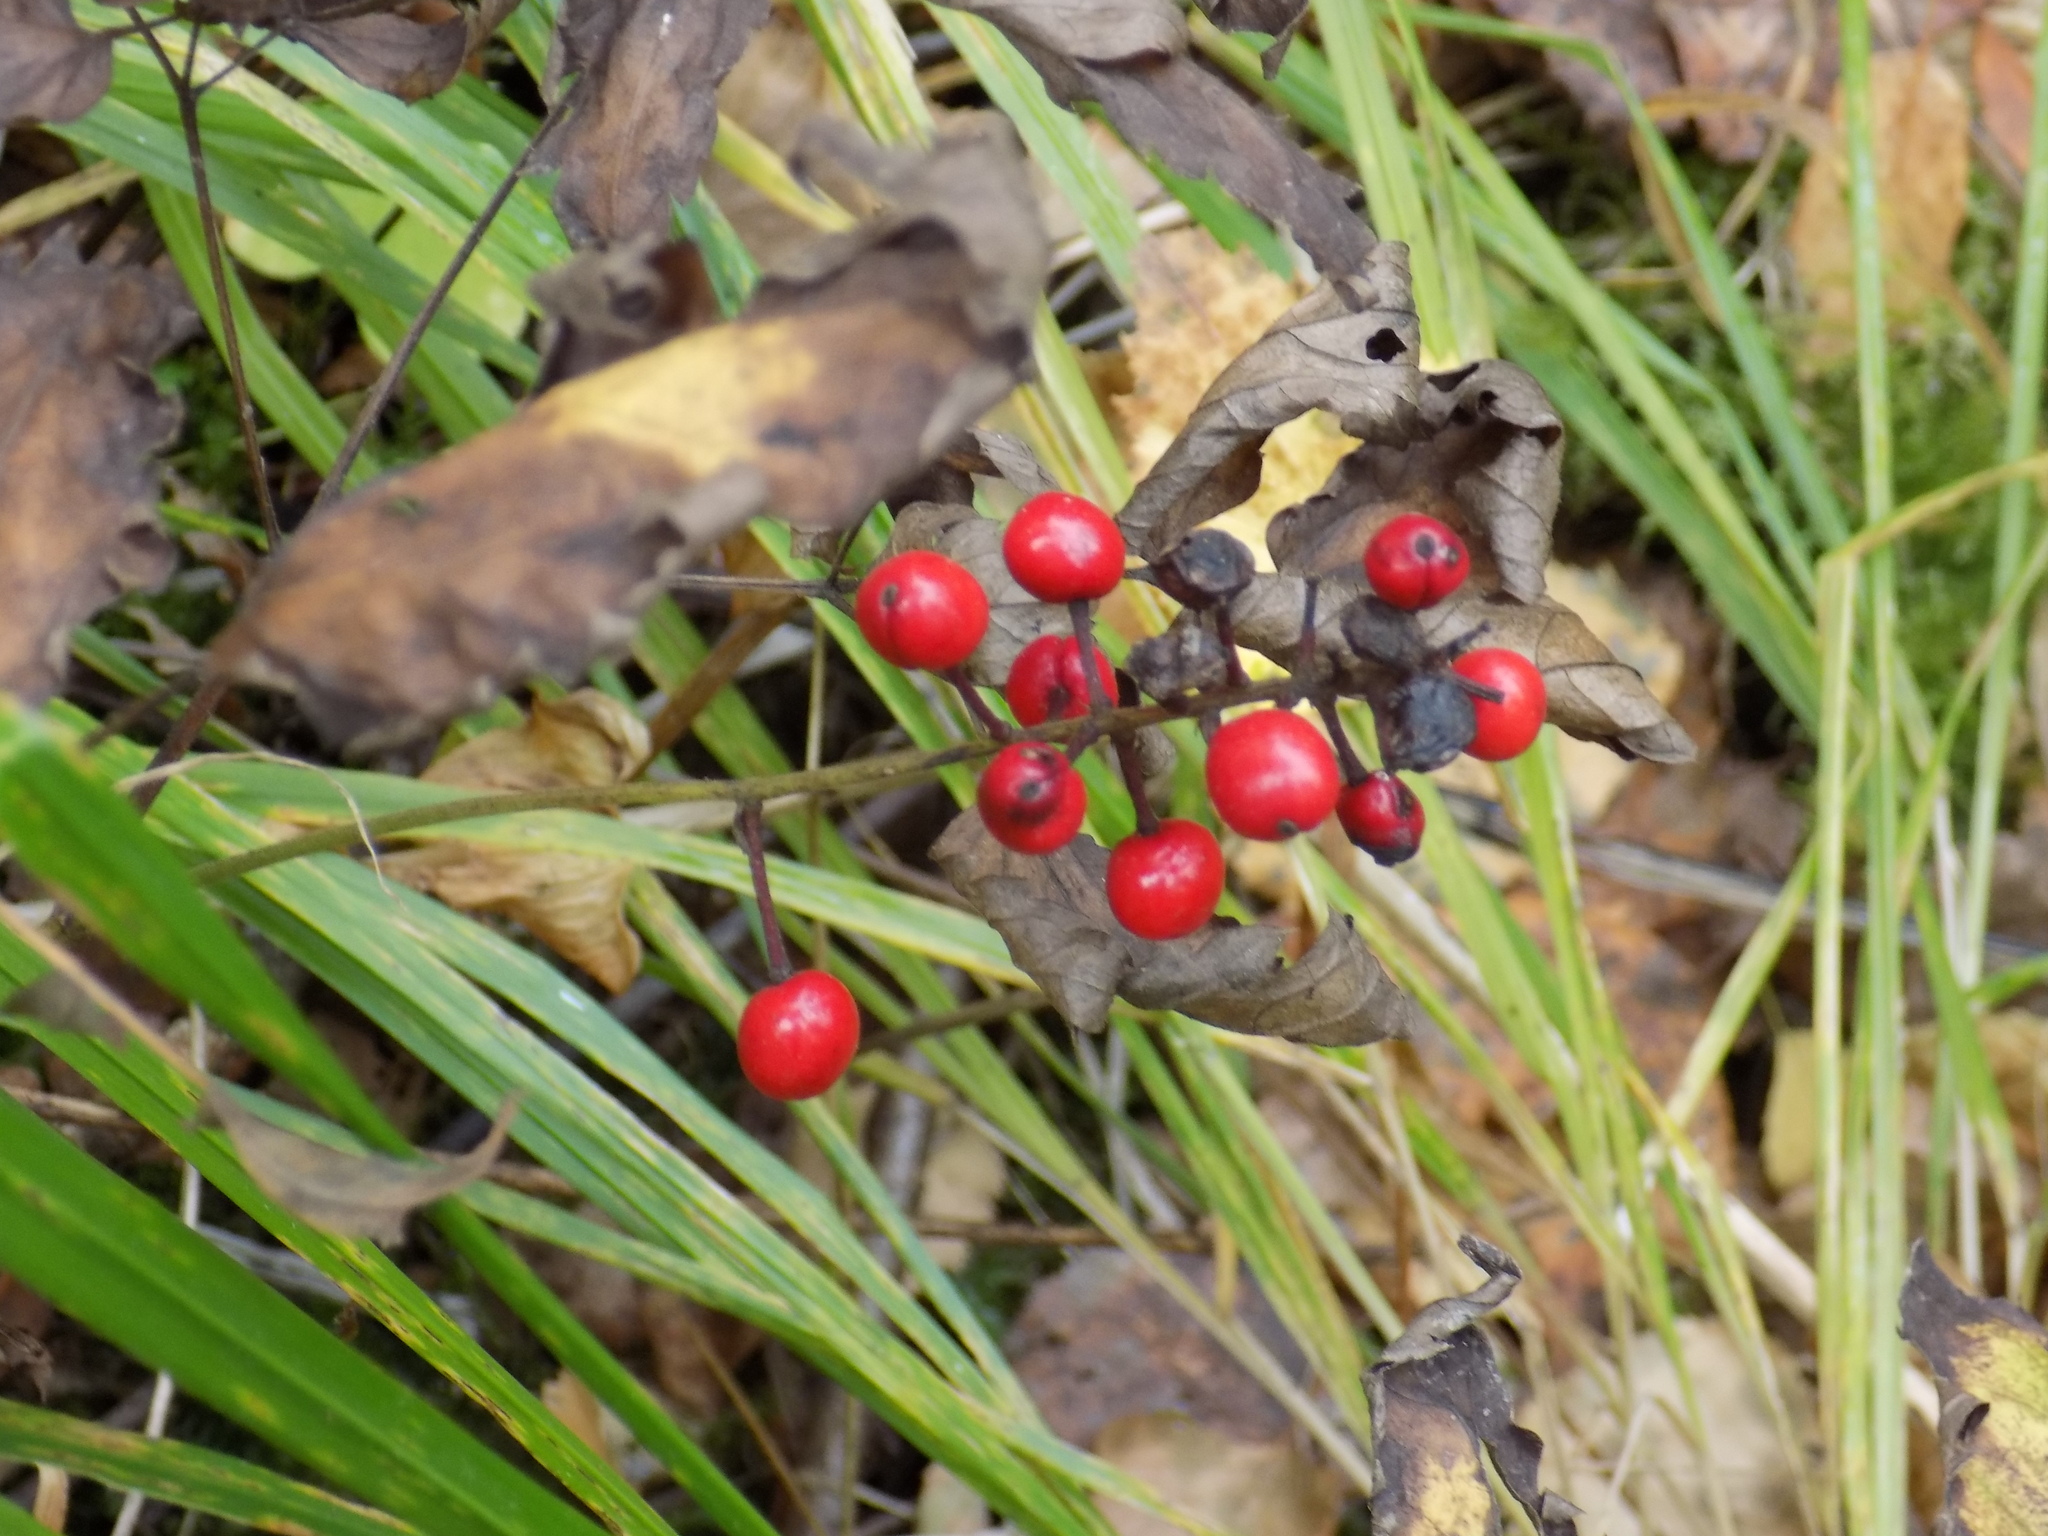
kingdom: Plantae
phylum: Tracheophyta
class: Magnoliopsida
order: Ranunculales
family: Ranunculaceae
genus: Actaea
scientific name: Actaea erythrocarpa
